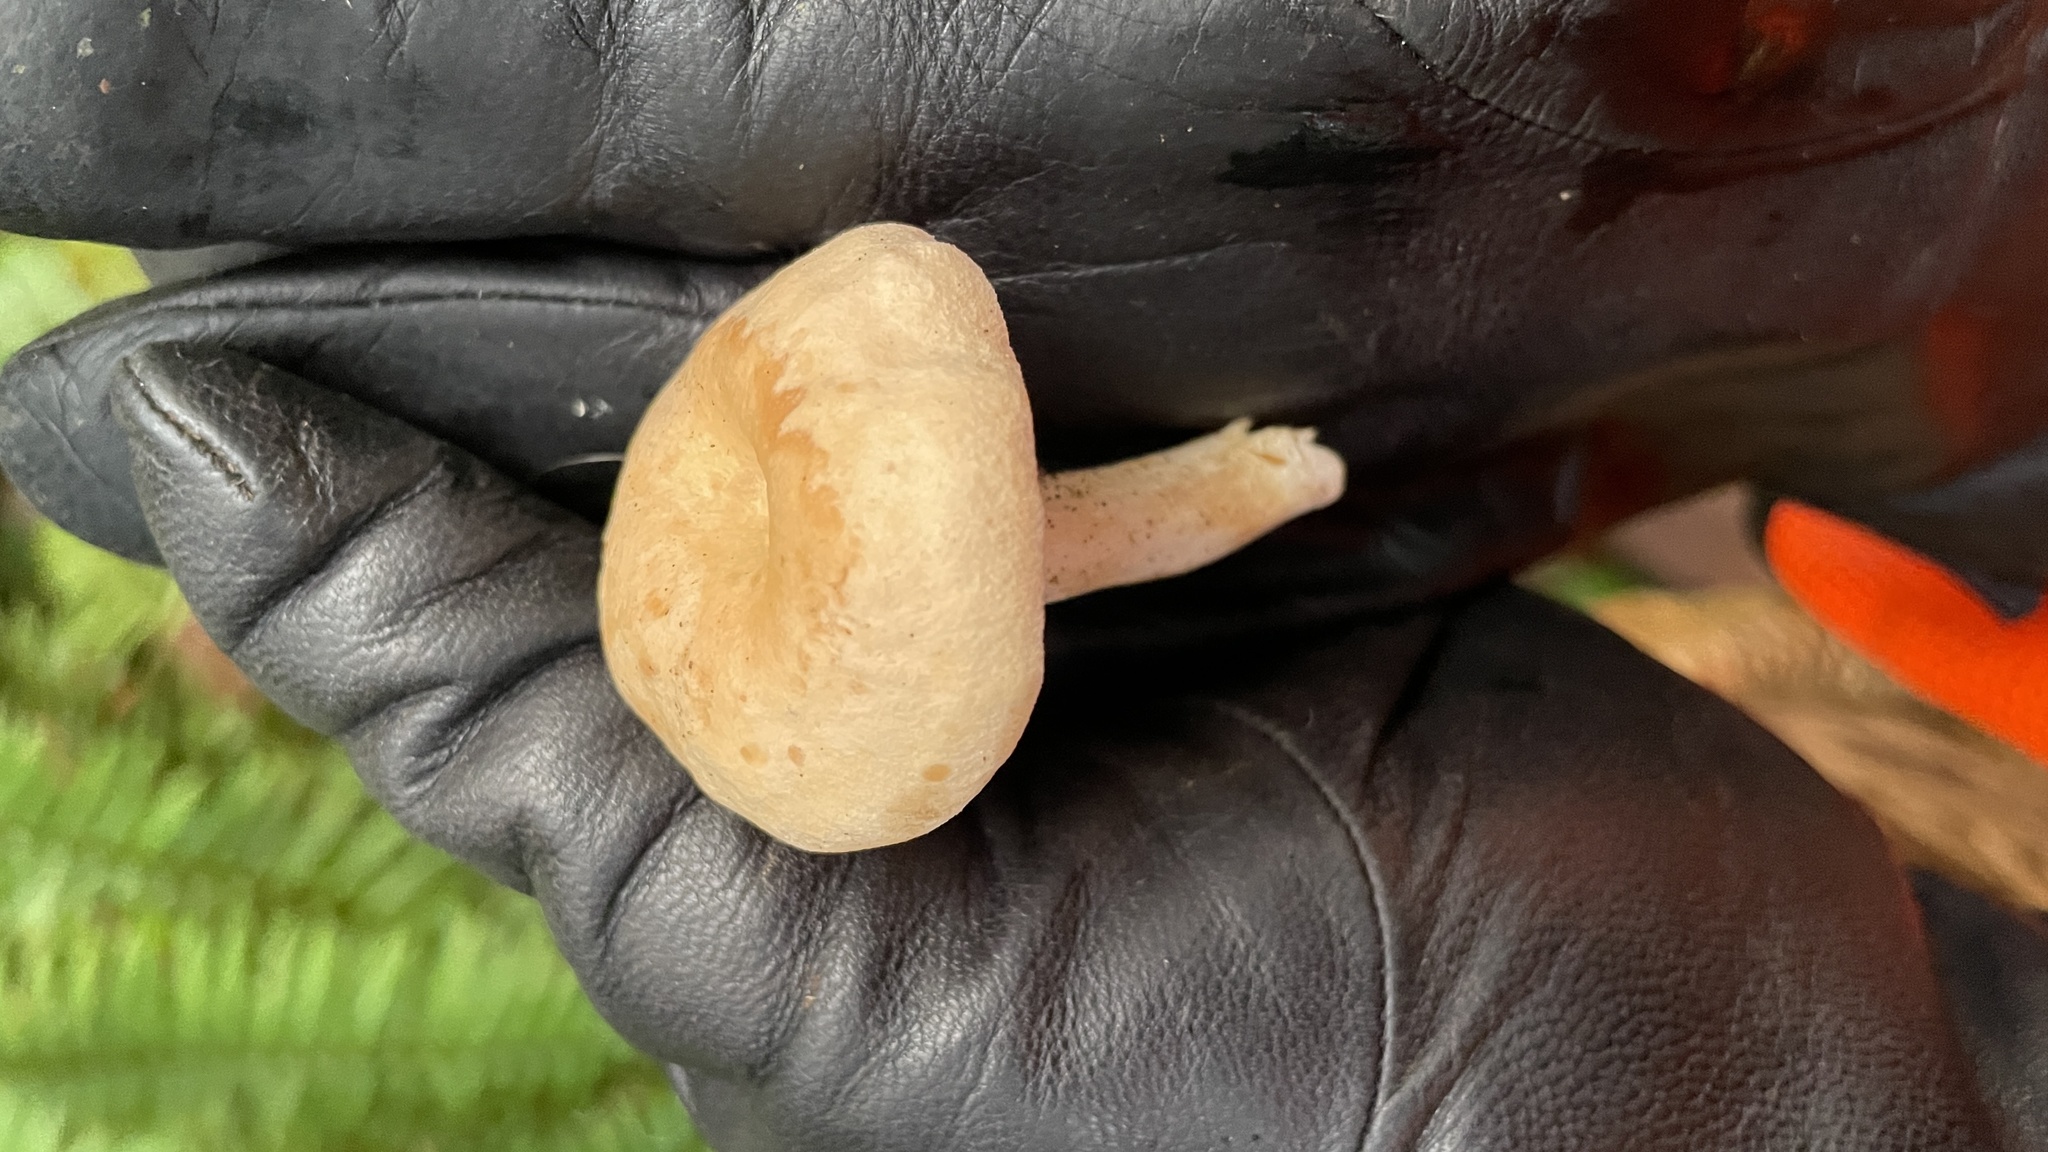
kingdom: Fungi
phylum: Basidiomycota
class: Agaricomycetes
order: Cantharellales
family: Hydnaceae
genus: Hydnum
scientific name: Hydnum oregonense
